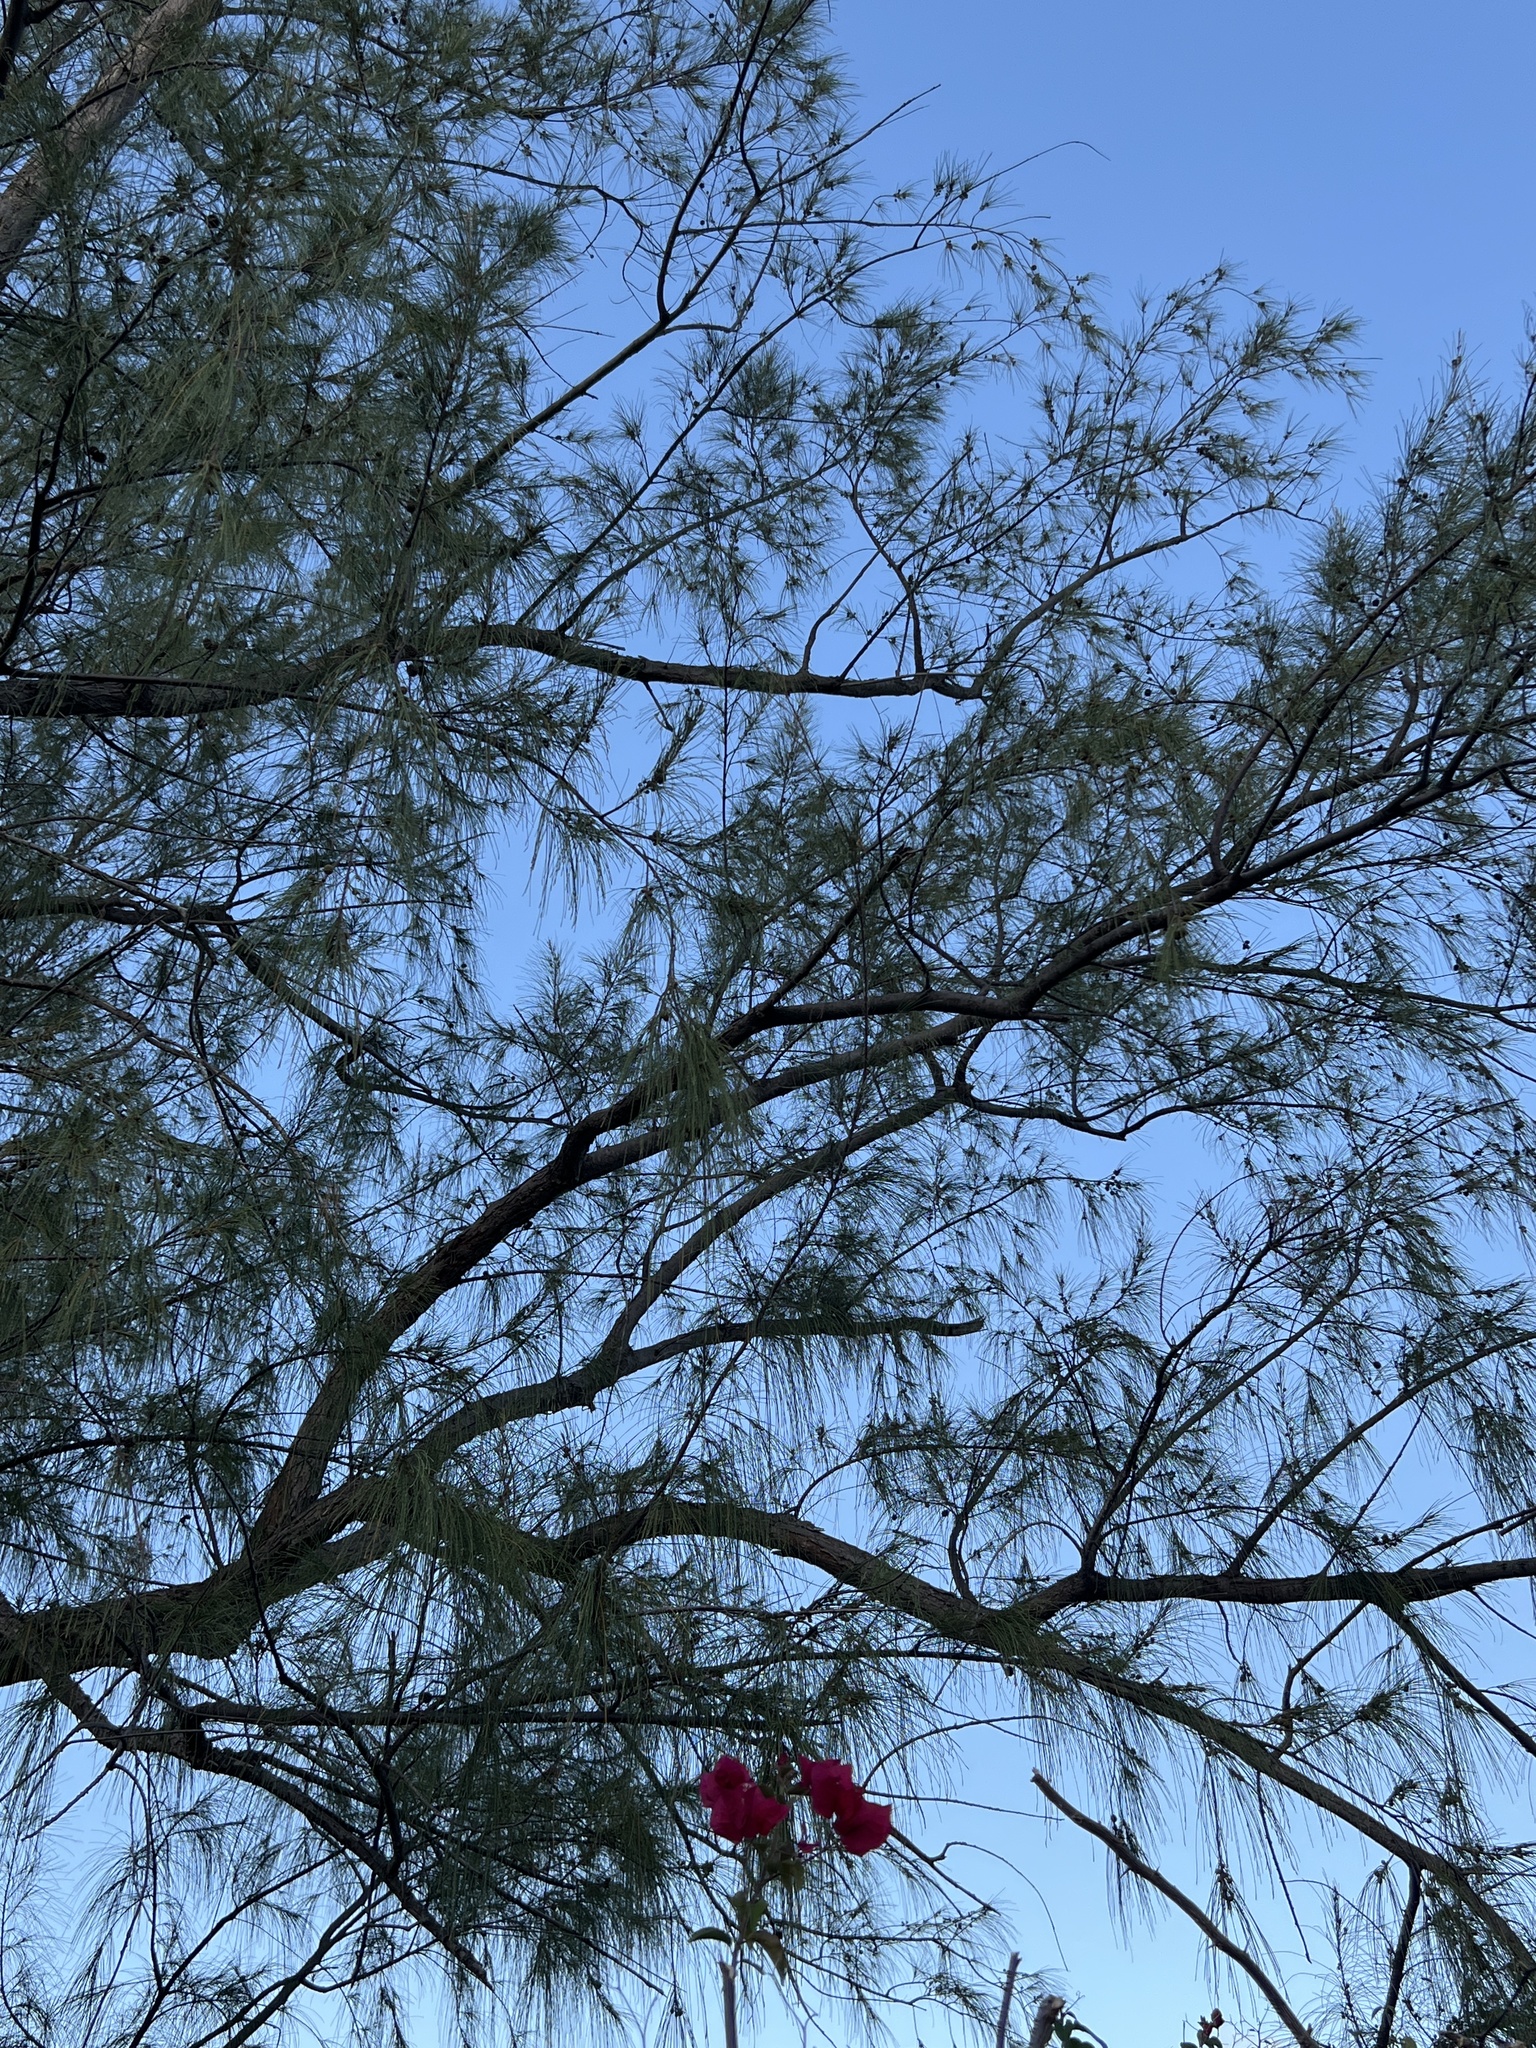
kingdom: Plantae
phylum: Tracheophyta
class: Magnoliopsida
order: Fagales
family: Casuarinaceae
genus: Casuarina
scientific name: Casuarina equisetifolia
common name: Beach sheoak
